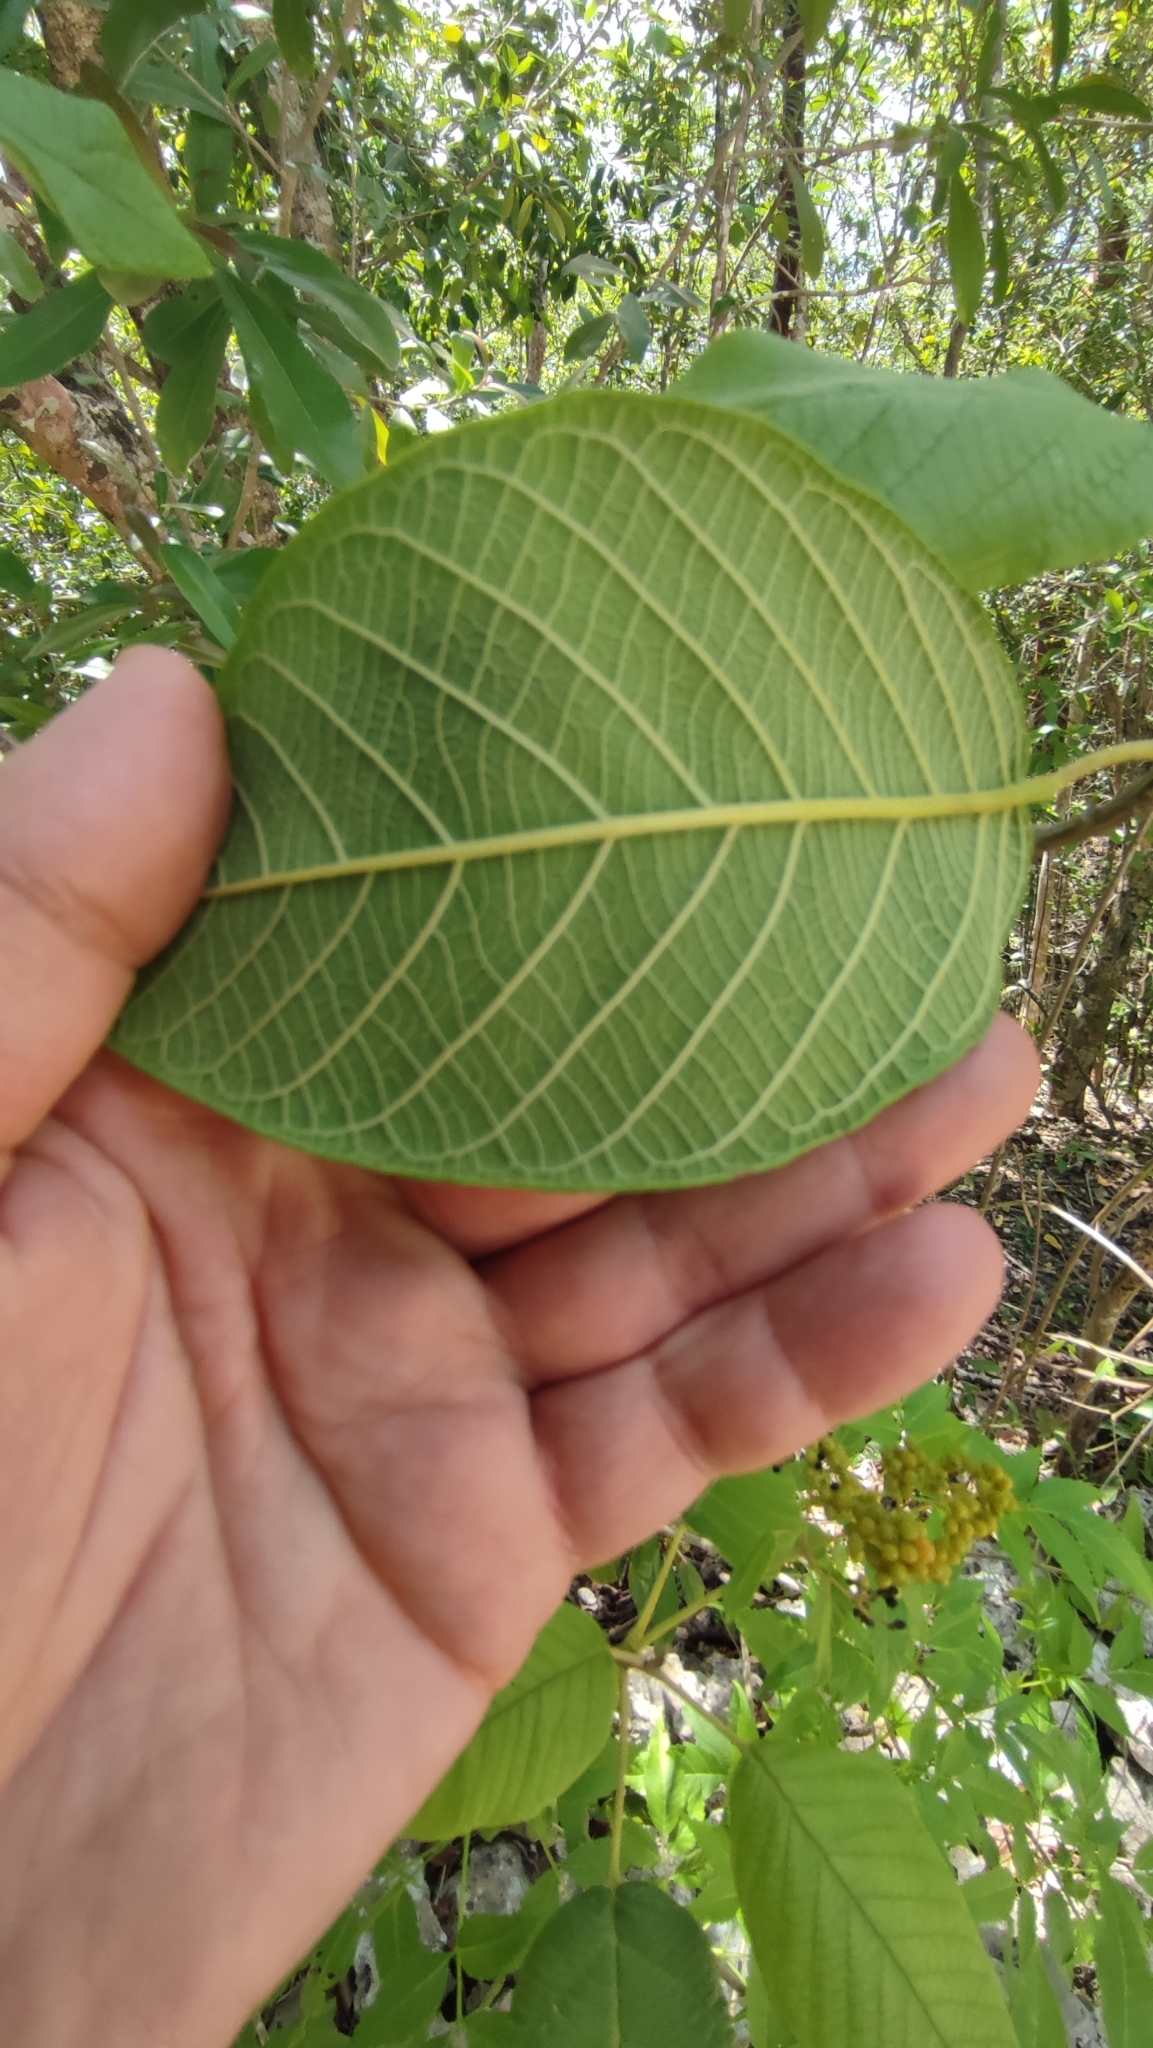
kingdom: Plantae
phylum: Tracheophyta
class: Magnoliopsida
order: Lamiales
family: Lamiaceae
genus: Petitia
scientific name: Petitia domingensis
